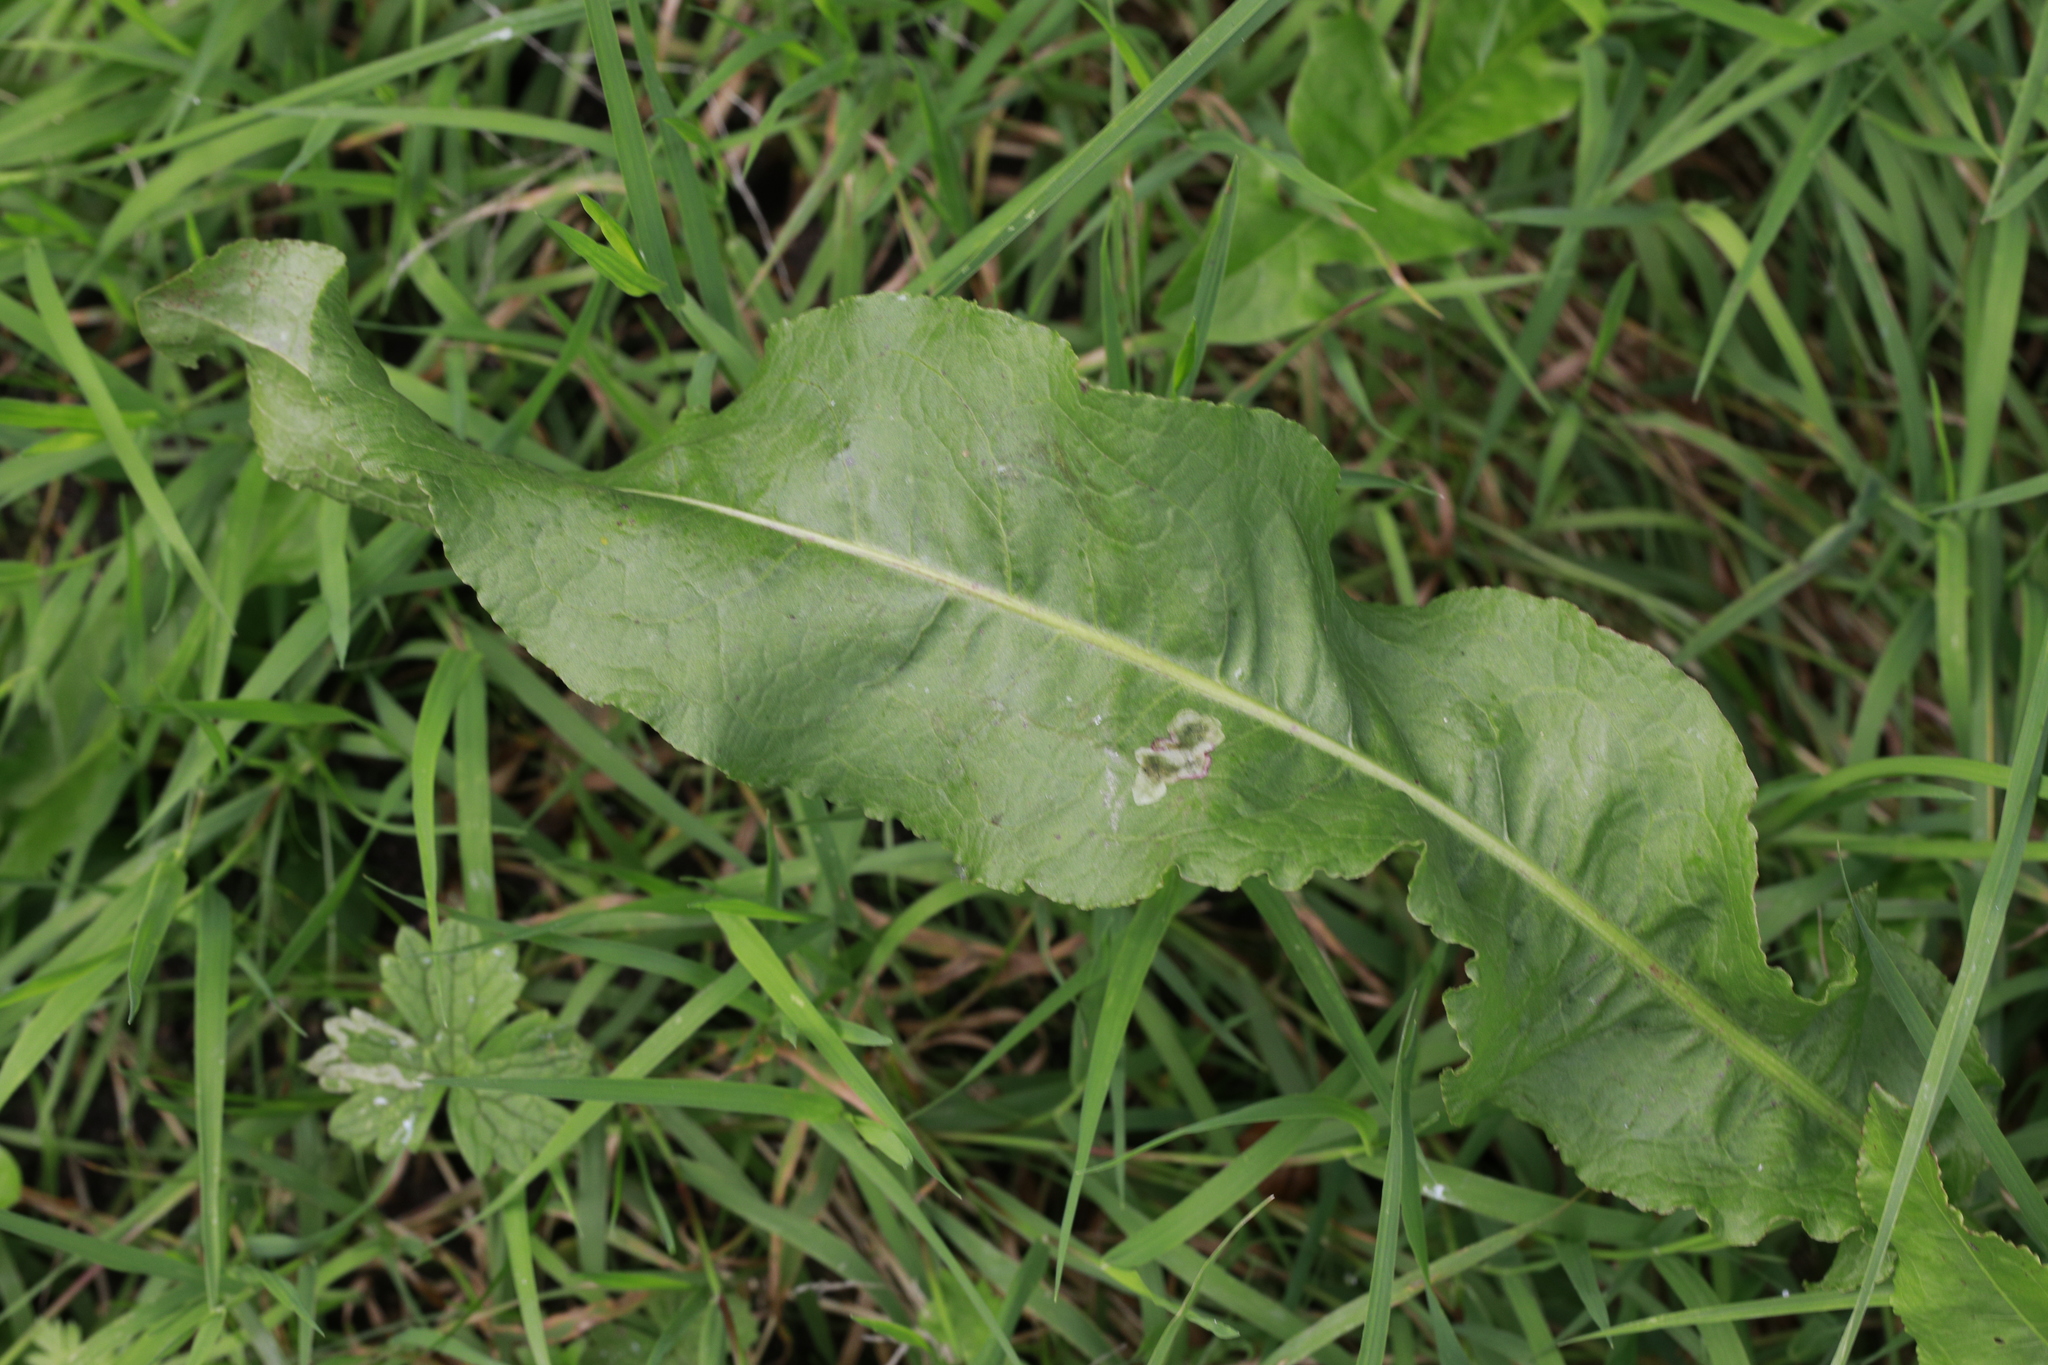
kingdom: Plantae
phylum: Tracheophyta
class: Magnoliopsida
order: Caryophyllales
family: Polygonaceae
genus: Rumex
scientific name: Rumex crispus
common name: Curled dock
